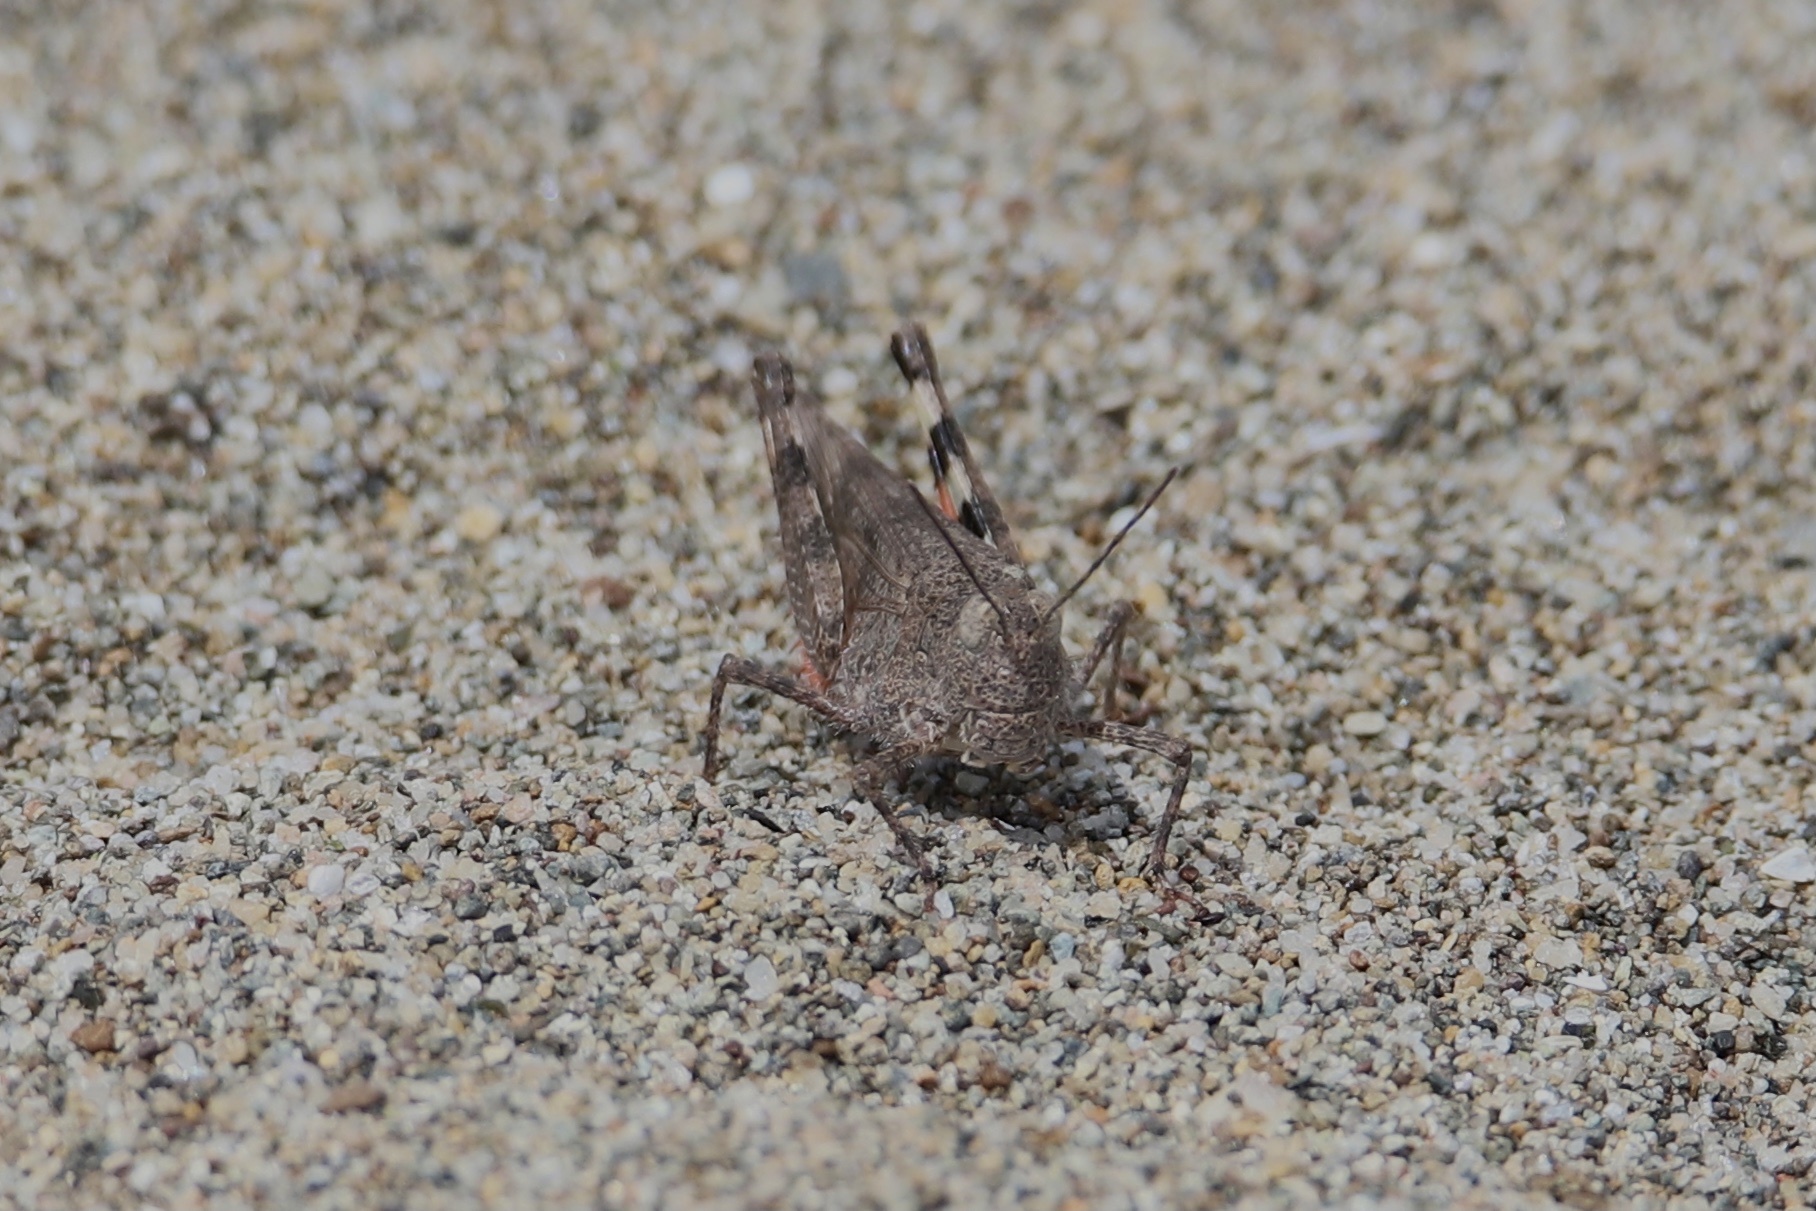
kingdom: Animalia
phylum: Arthropoda
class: Insecta
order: Orthoptera
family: Acrididae
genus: Heliastus
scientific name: Heliastus sumichrasti
